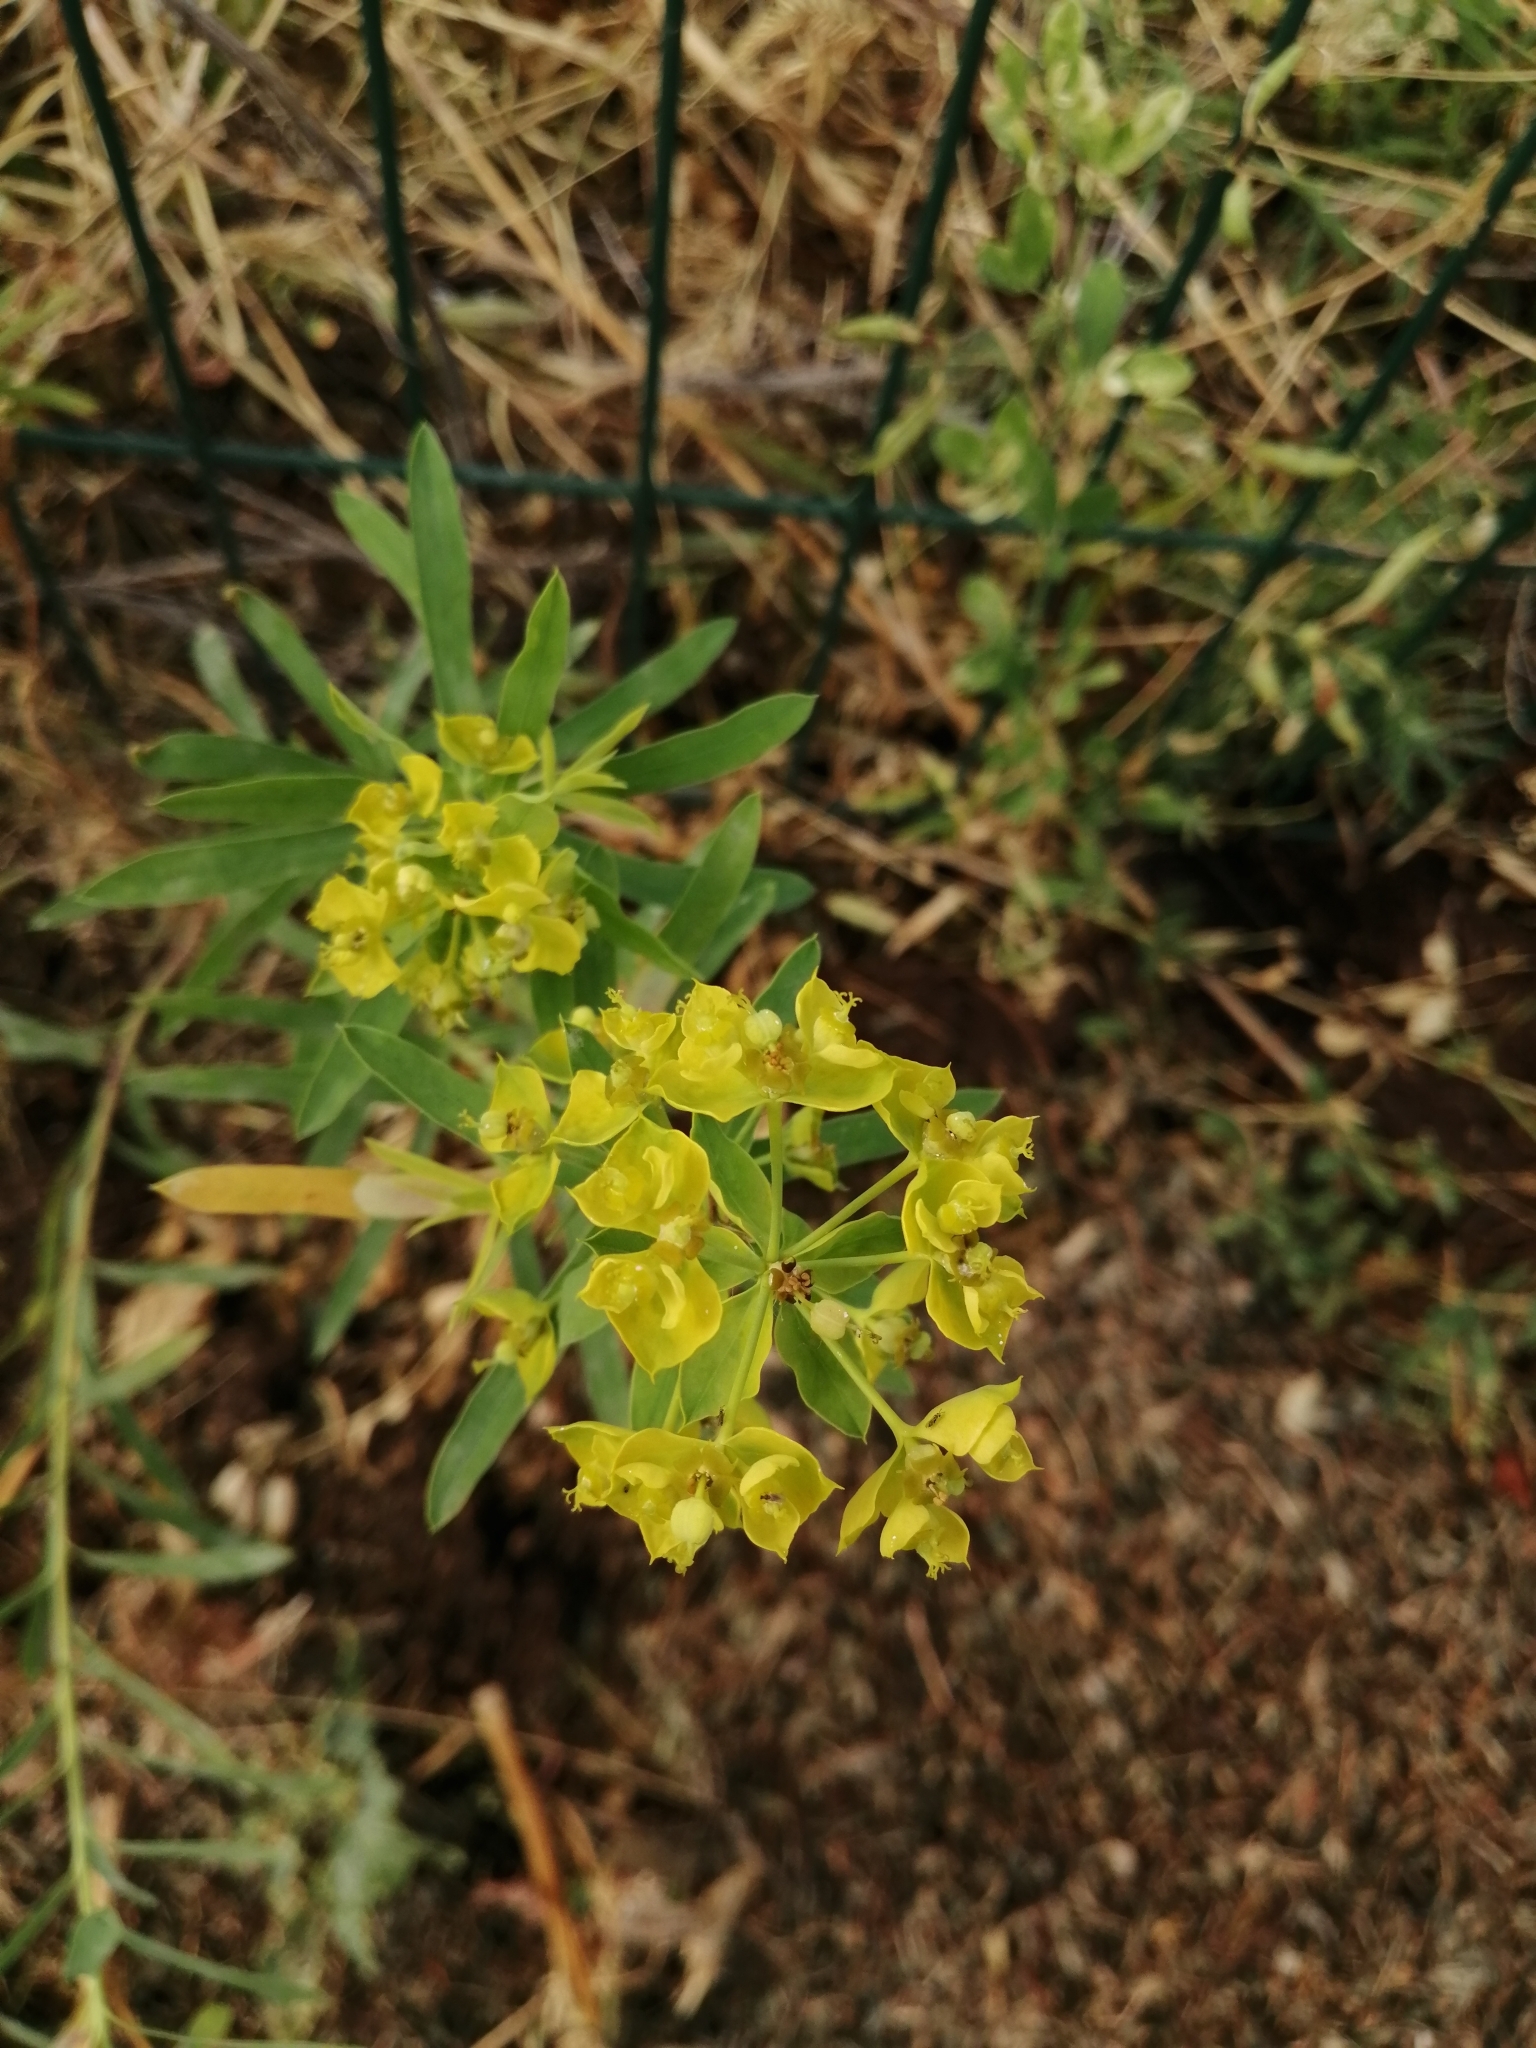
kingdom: Plantae
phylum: Tracheophyta
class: Magnoliopsida
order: Malpighiales
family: Euphorbiaceae
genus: Euphorbia
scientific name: Euphorbia virgata
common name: Leafy spurge
